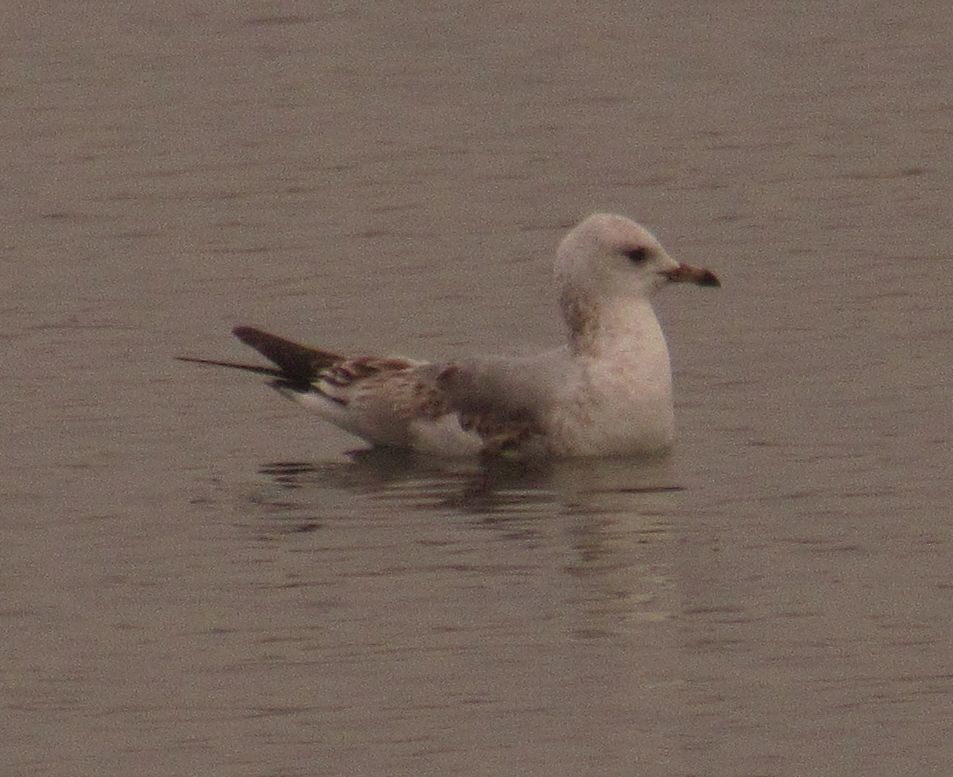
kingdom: Animalia
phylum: Chordata
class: Aves
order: Charadriiformes
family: Laridae
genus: Larus
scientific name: Larus canus
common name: Mew gull
